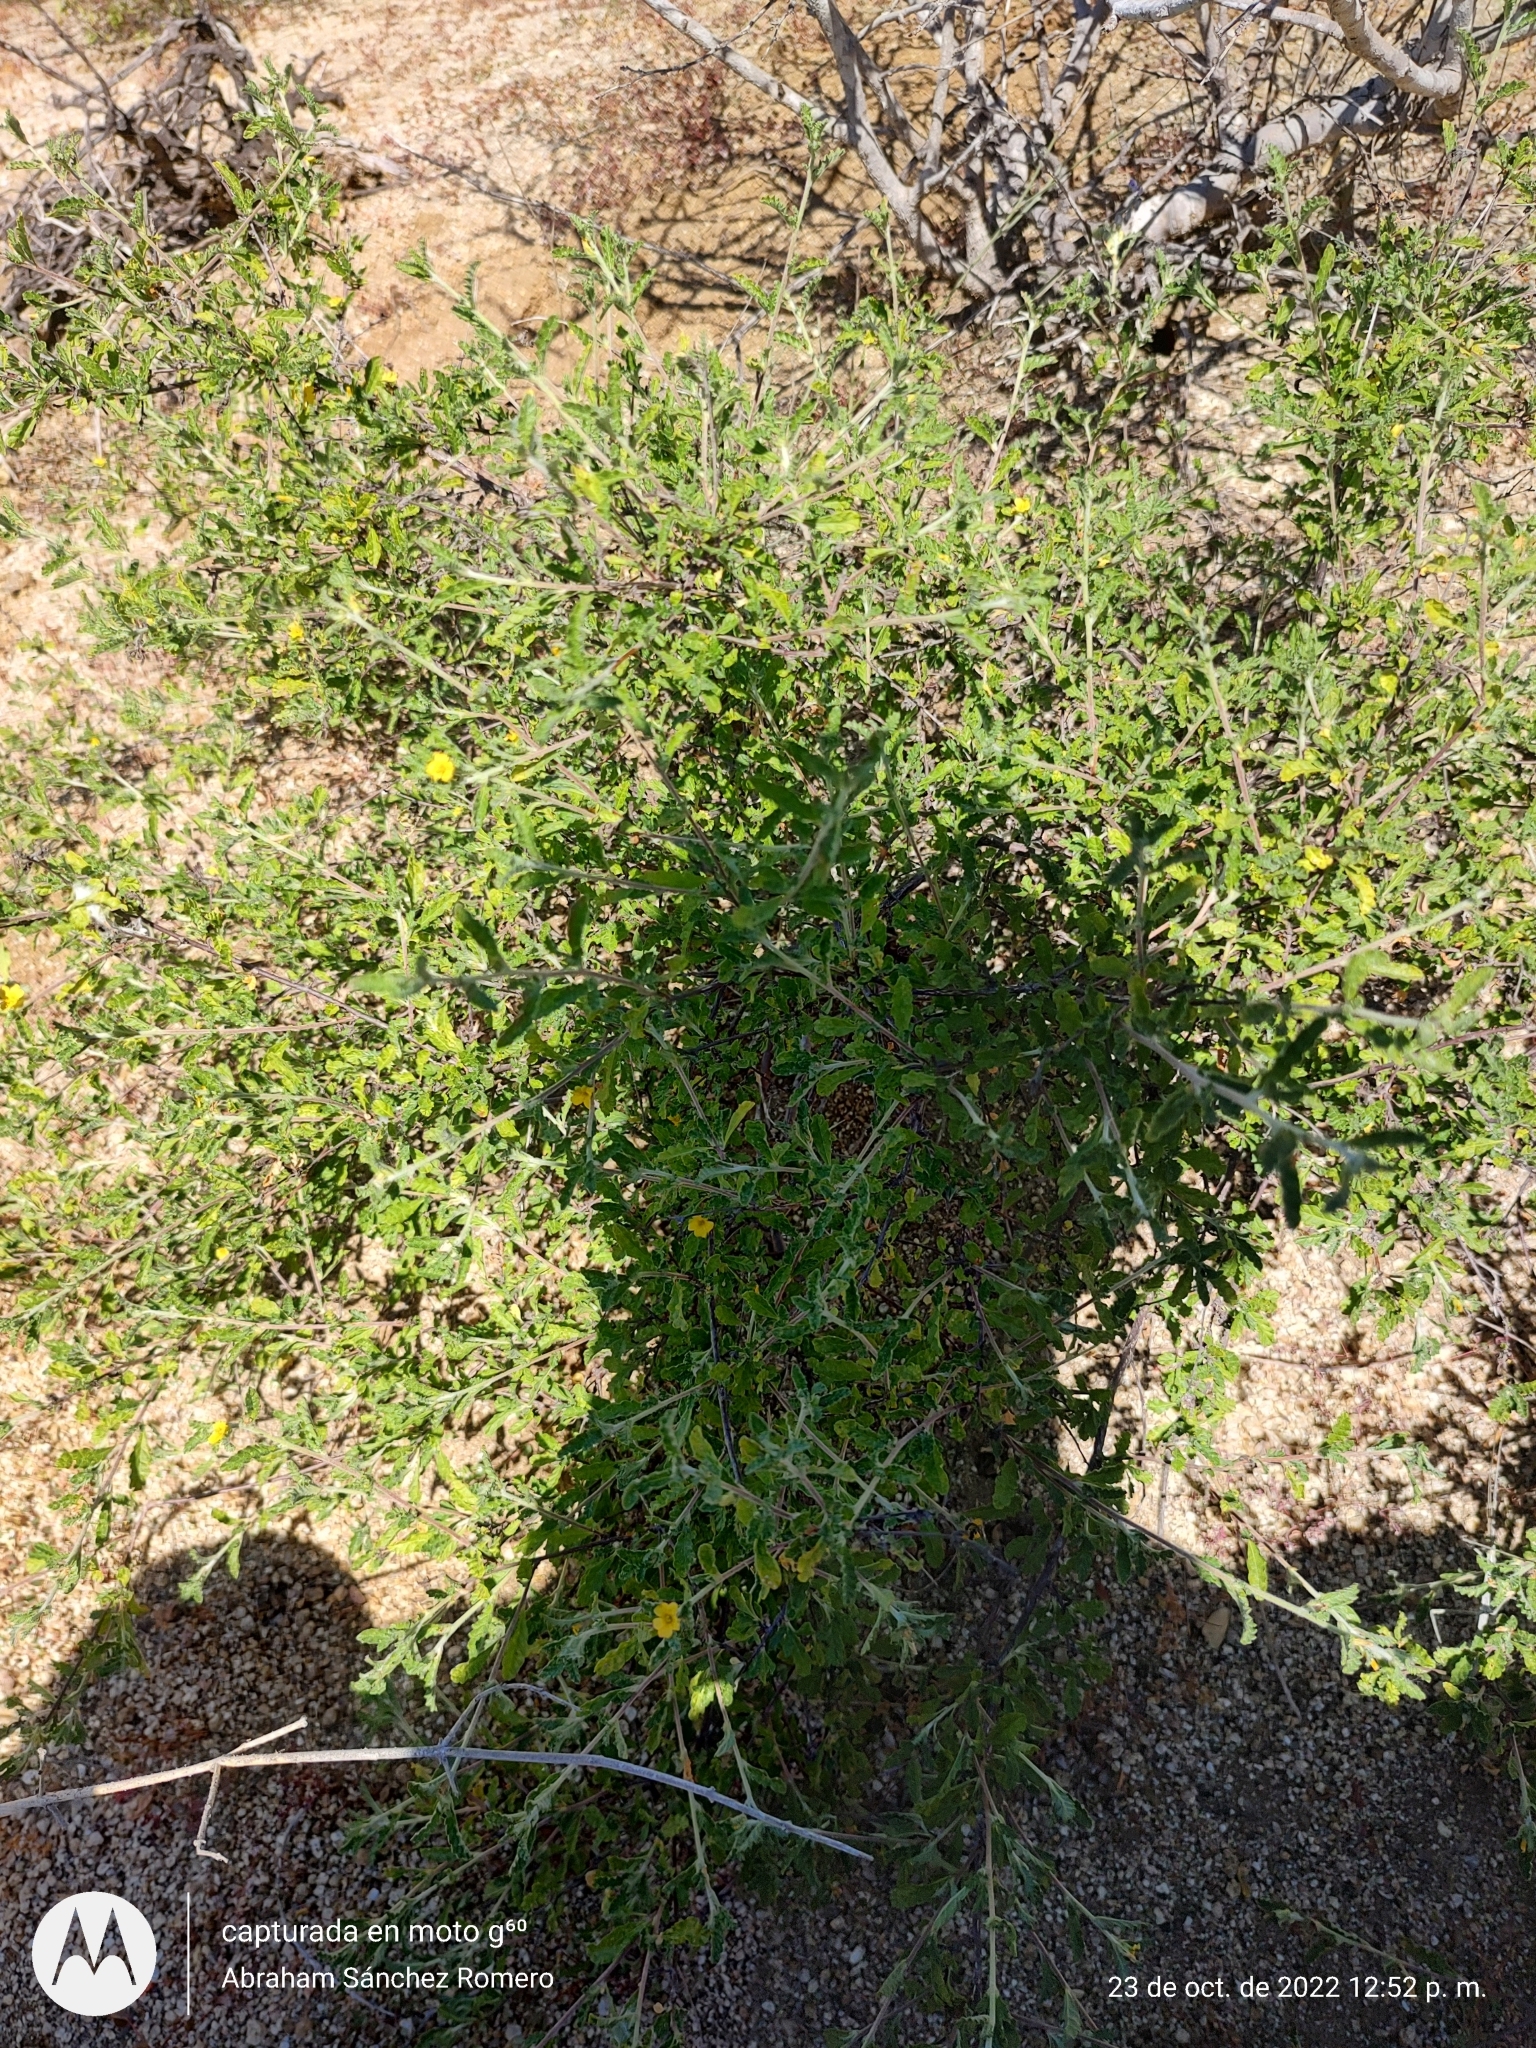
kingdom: Plantae
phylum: Tracheophyta
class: Magnoliopsida
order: Malpighiales
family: Turneraceae
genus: Turnera
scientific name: Turnera diffusa
